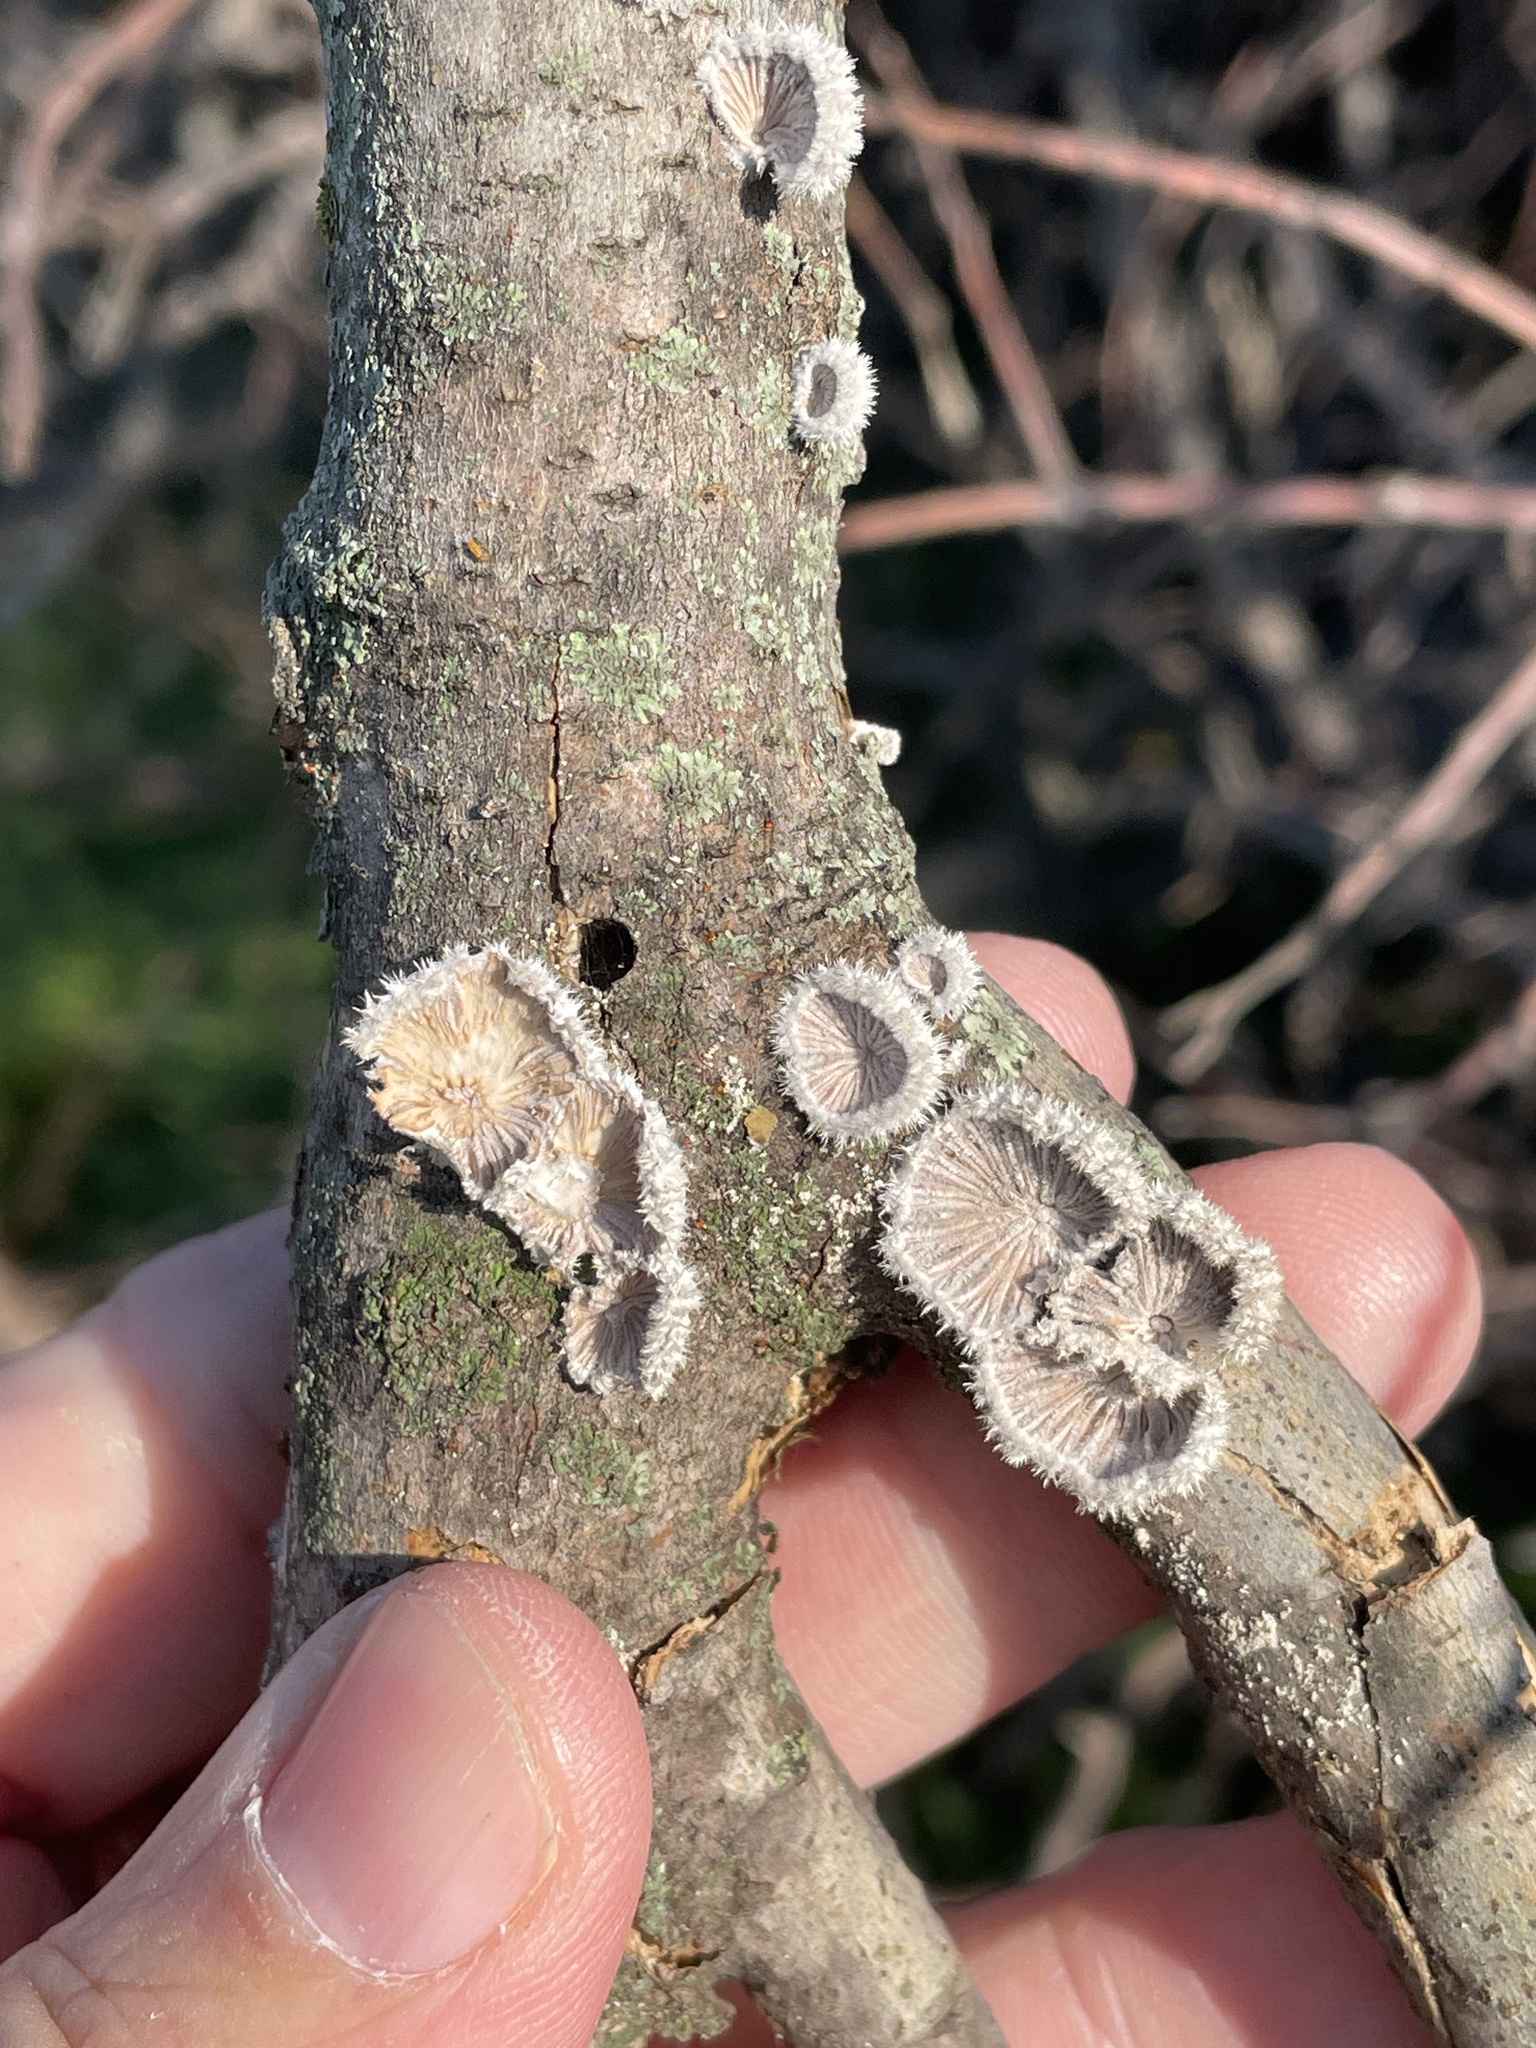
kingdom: Fungi
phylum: Basidiomycota
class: Agaricomycetes
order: Agaricales
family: Schizophyllaceae
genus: Schizophyllum
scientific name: Schizophyllum commune
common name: Common porecrust
